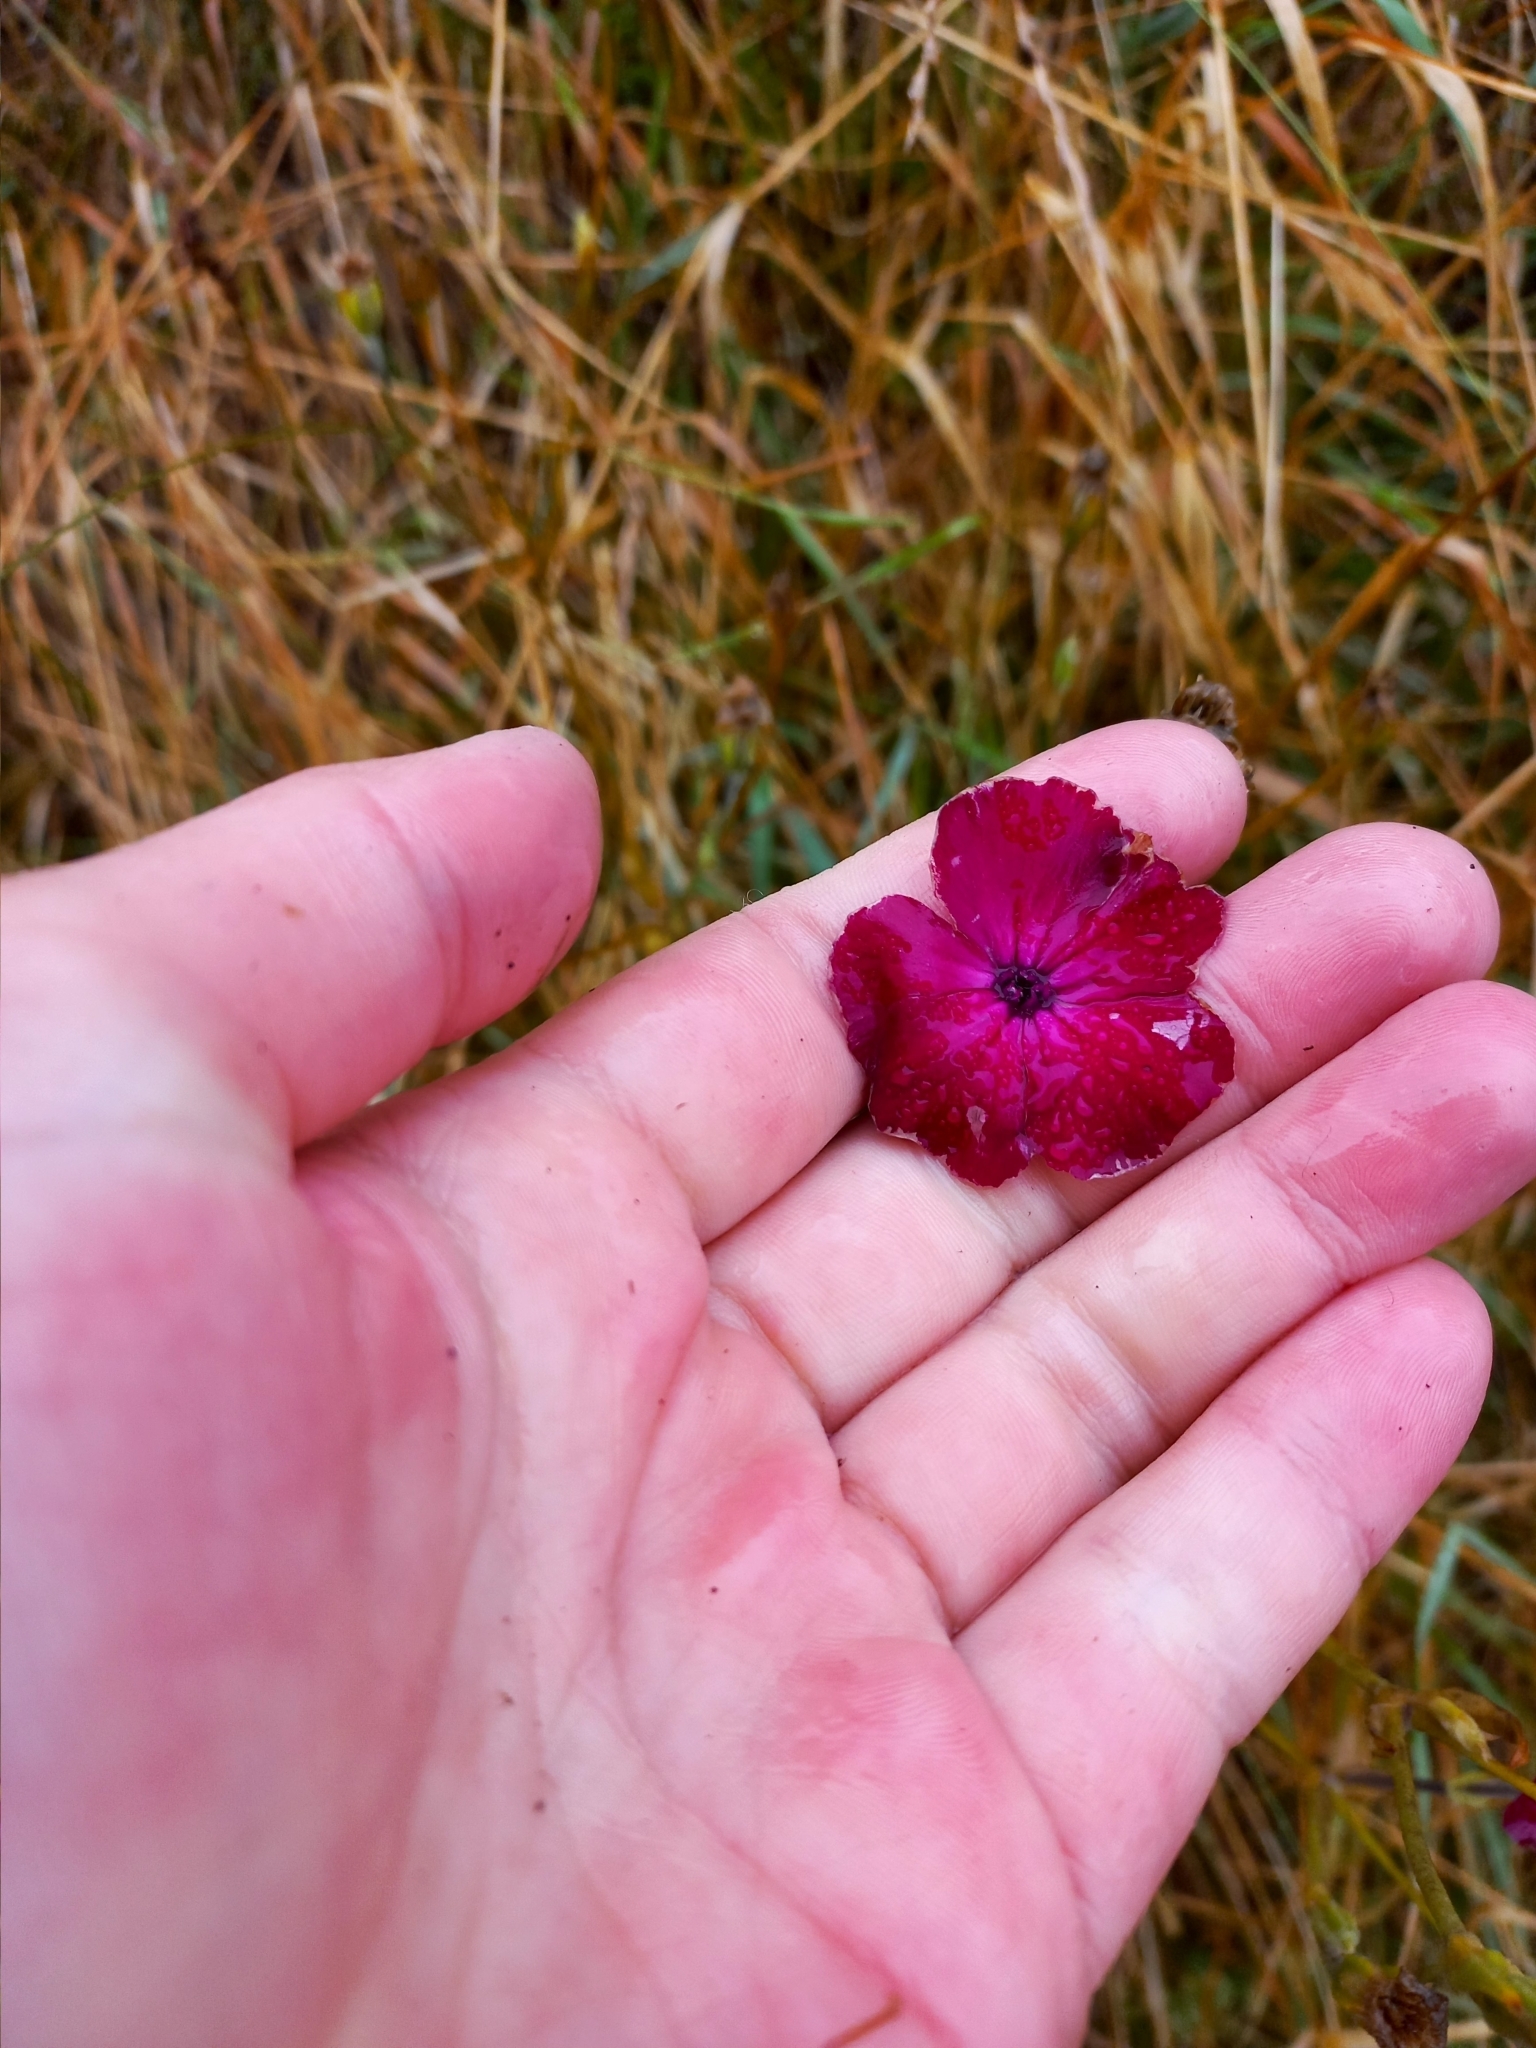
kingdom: Plantae
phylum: Tracheophyta
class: Magnoliopsida
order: Caryophyllales
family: Caryophyllaceae
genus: Silene
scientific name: Silene coronaria
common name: Rose campion
